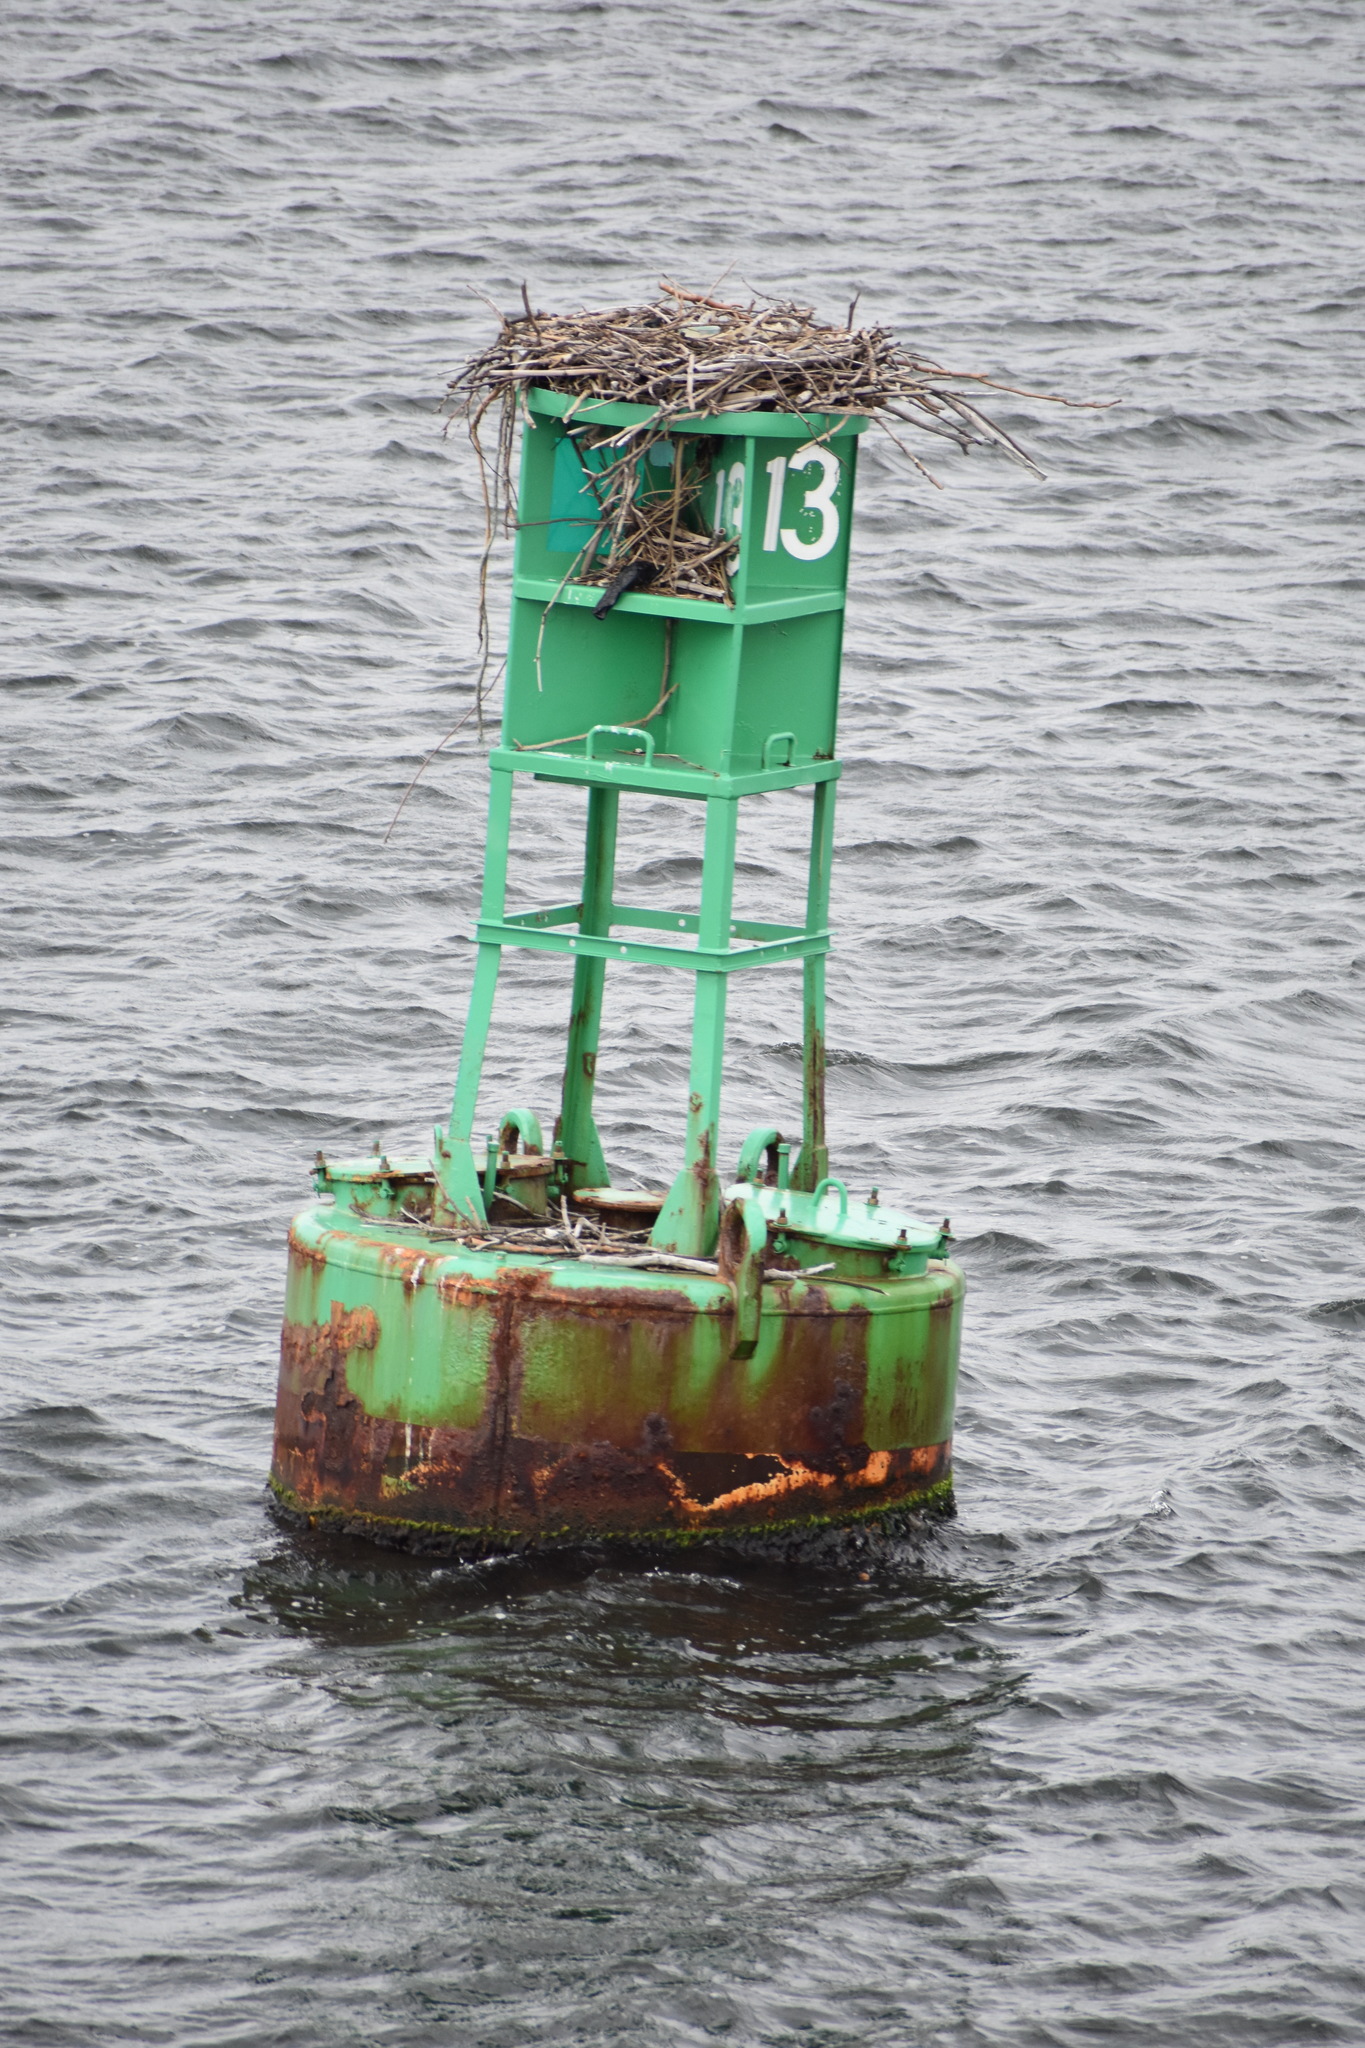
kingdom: Animalia
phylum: Chordata
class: Aves
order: Accipitriformes
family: Pandionidae
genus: Pandion
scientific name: Pandion haliaetus
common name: Osprey
